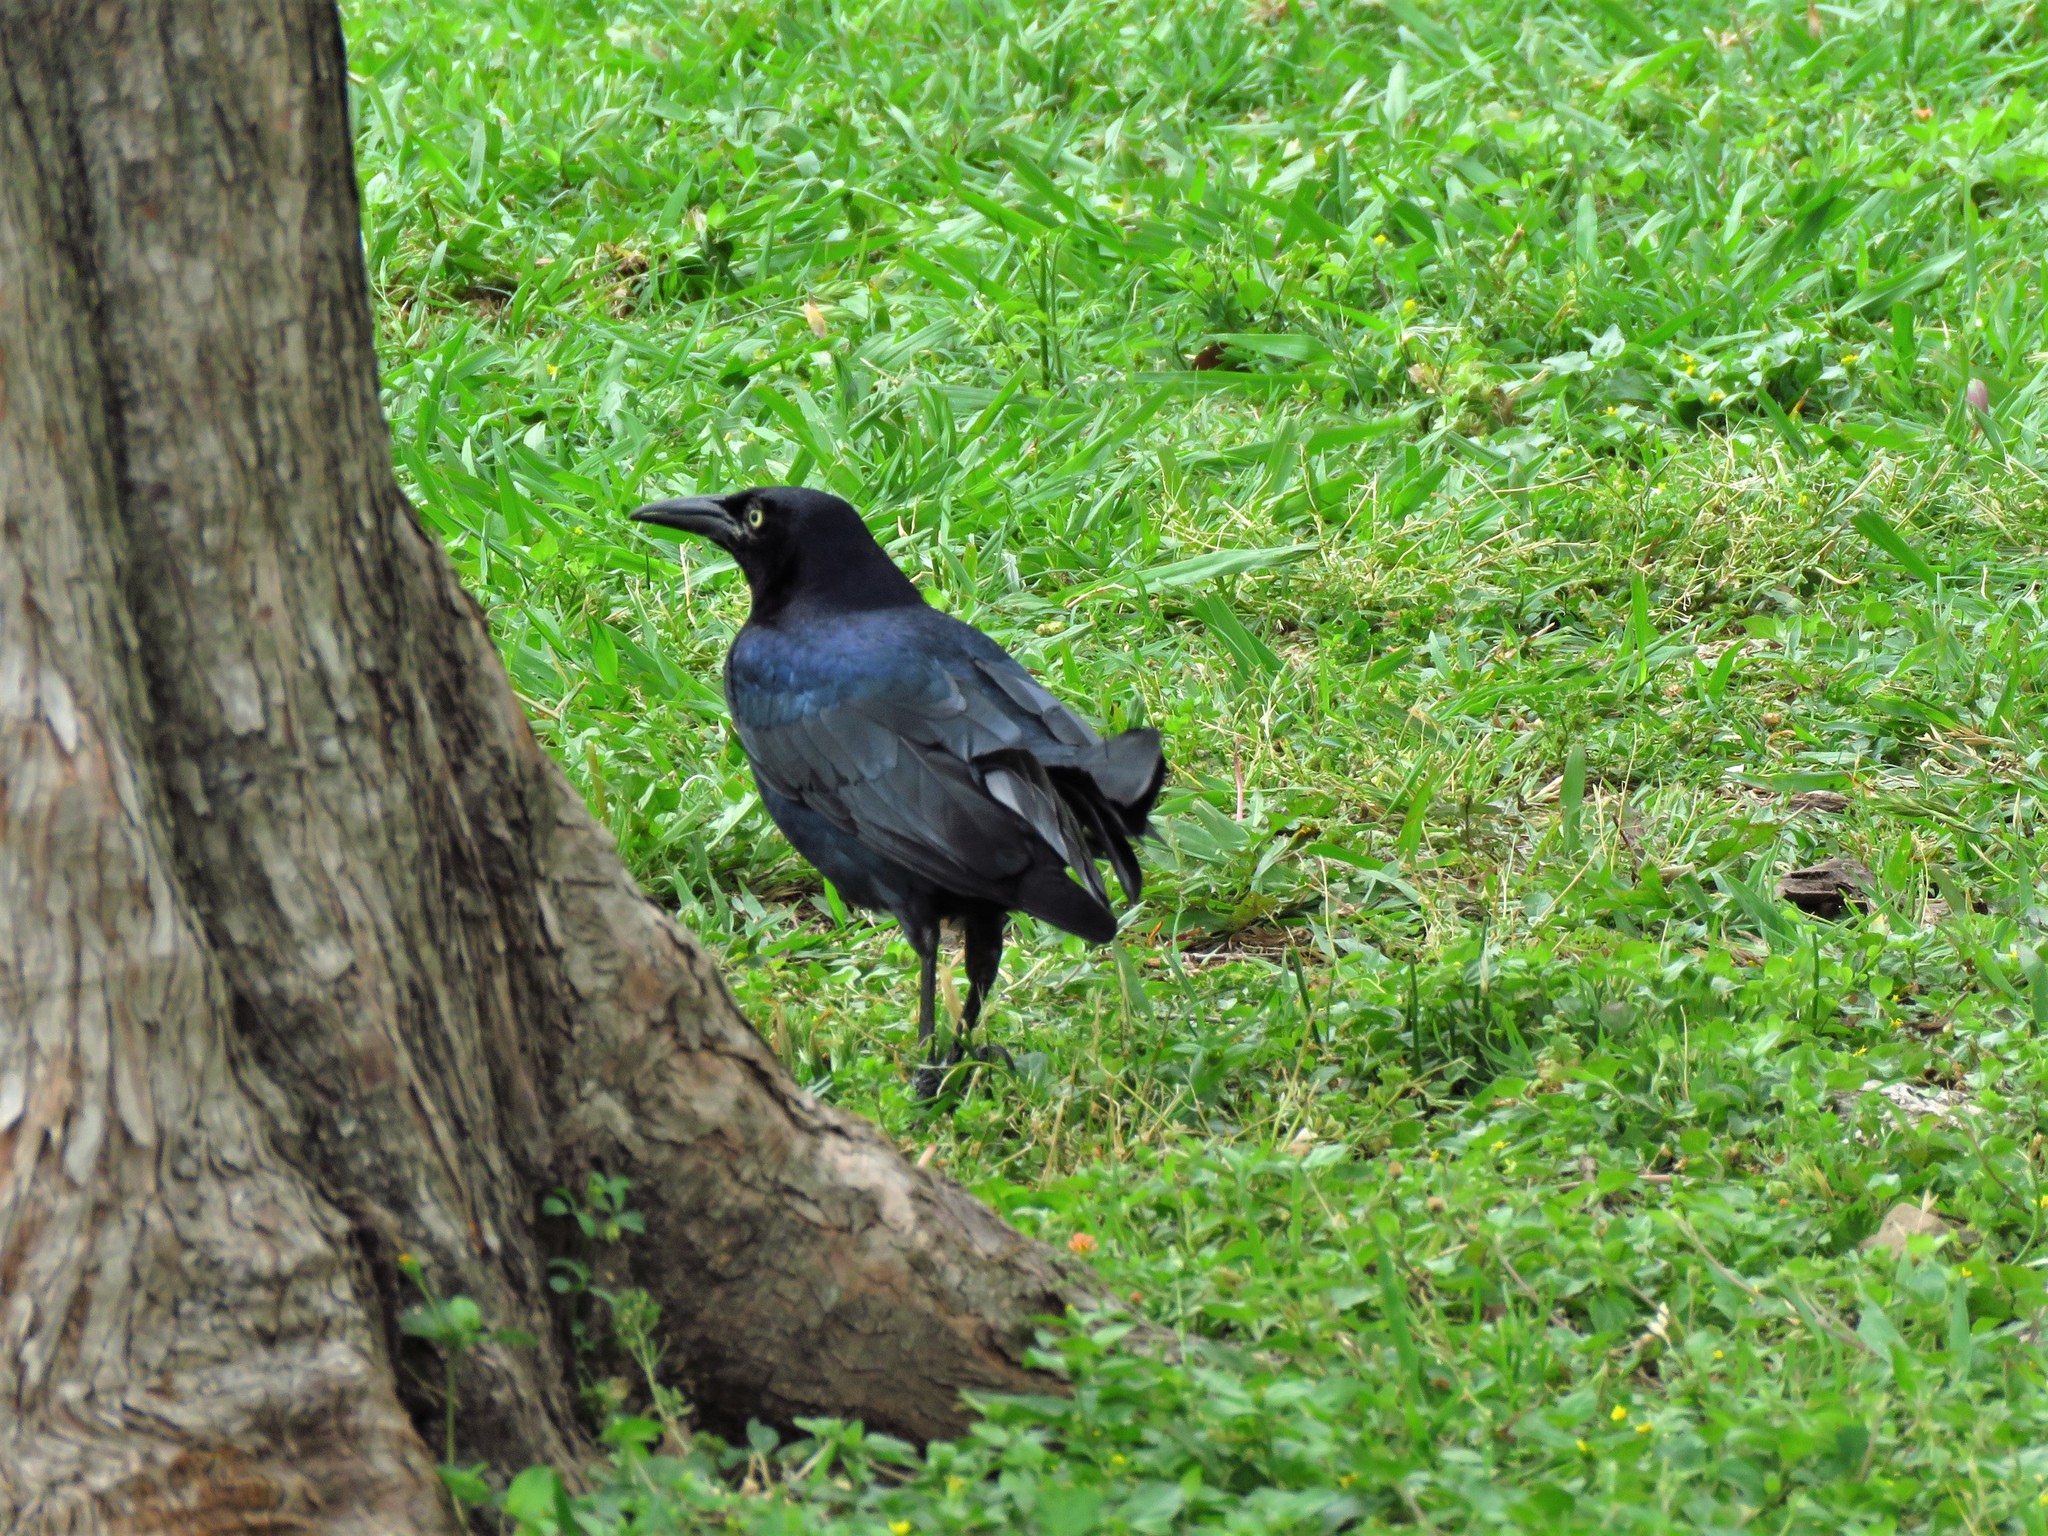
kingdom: Animalia
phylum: Chordata
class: Aves
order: Passeriformes
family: Icteridae
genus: Quiscalus
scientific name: Quiscalus mexicanus
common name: Great-tailed grackle
